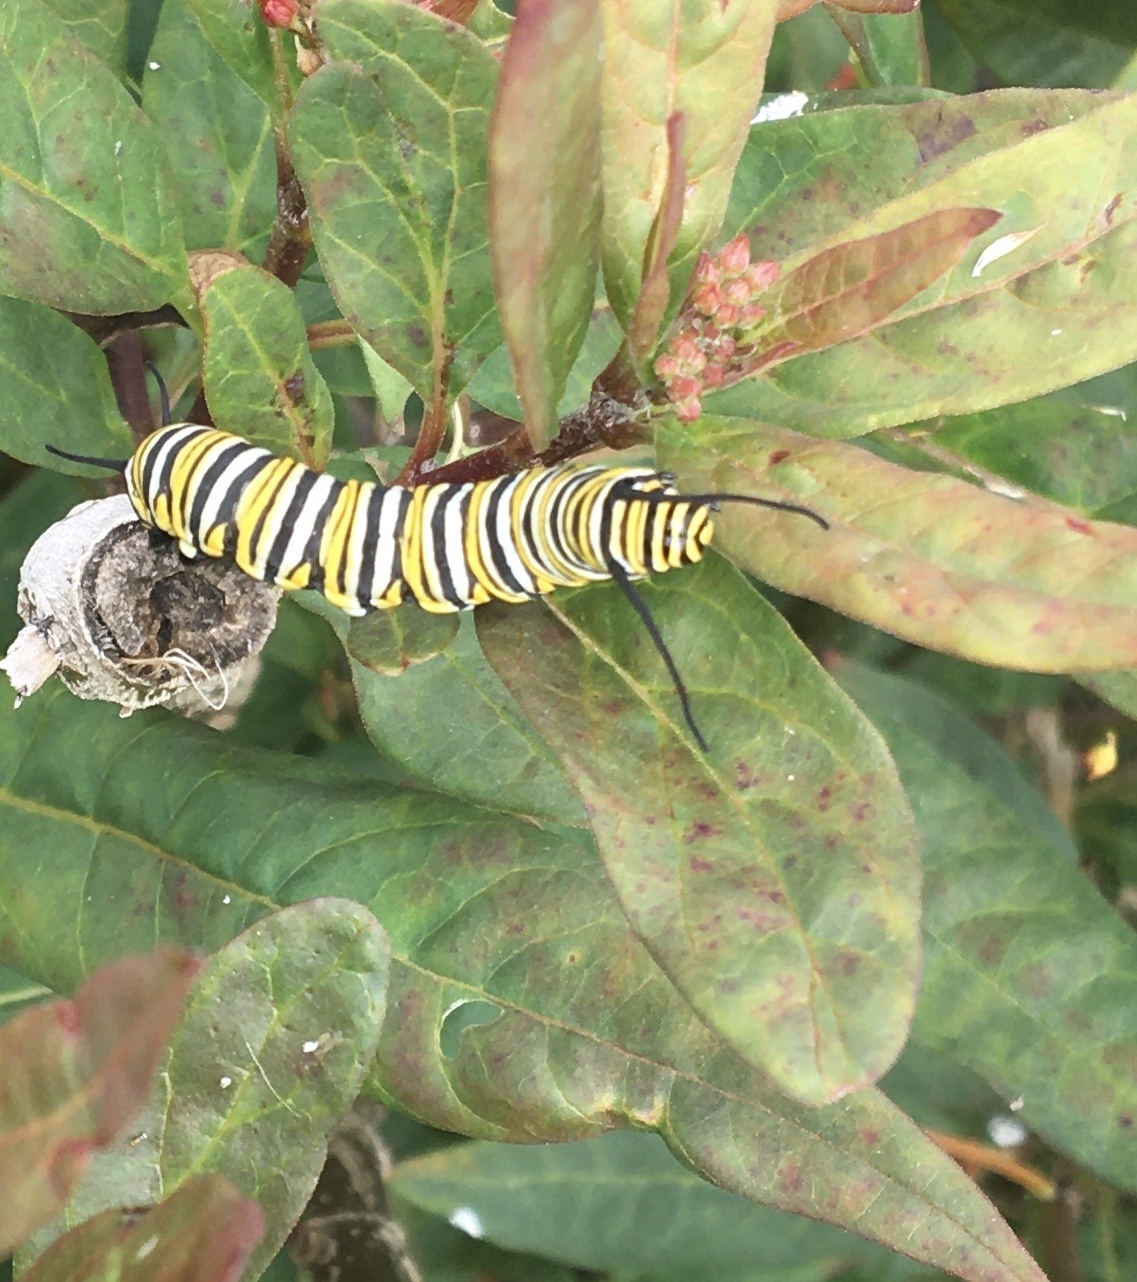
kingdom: Animalia
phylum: Arthropoda
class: Insecta
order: Lepidoptera
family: Nymphalidae
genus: Danaus
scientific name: Danaus plexippus
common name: Monarch
